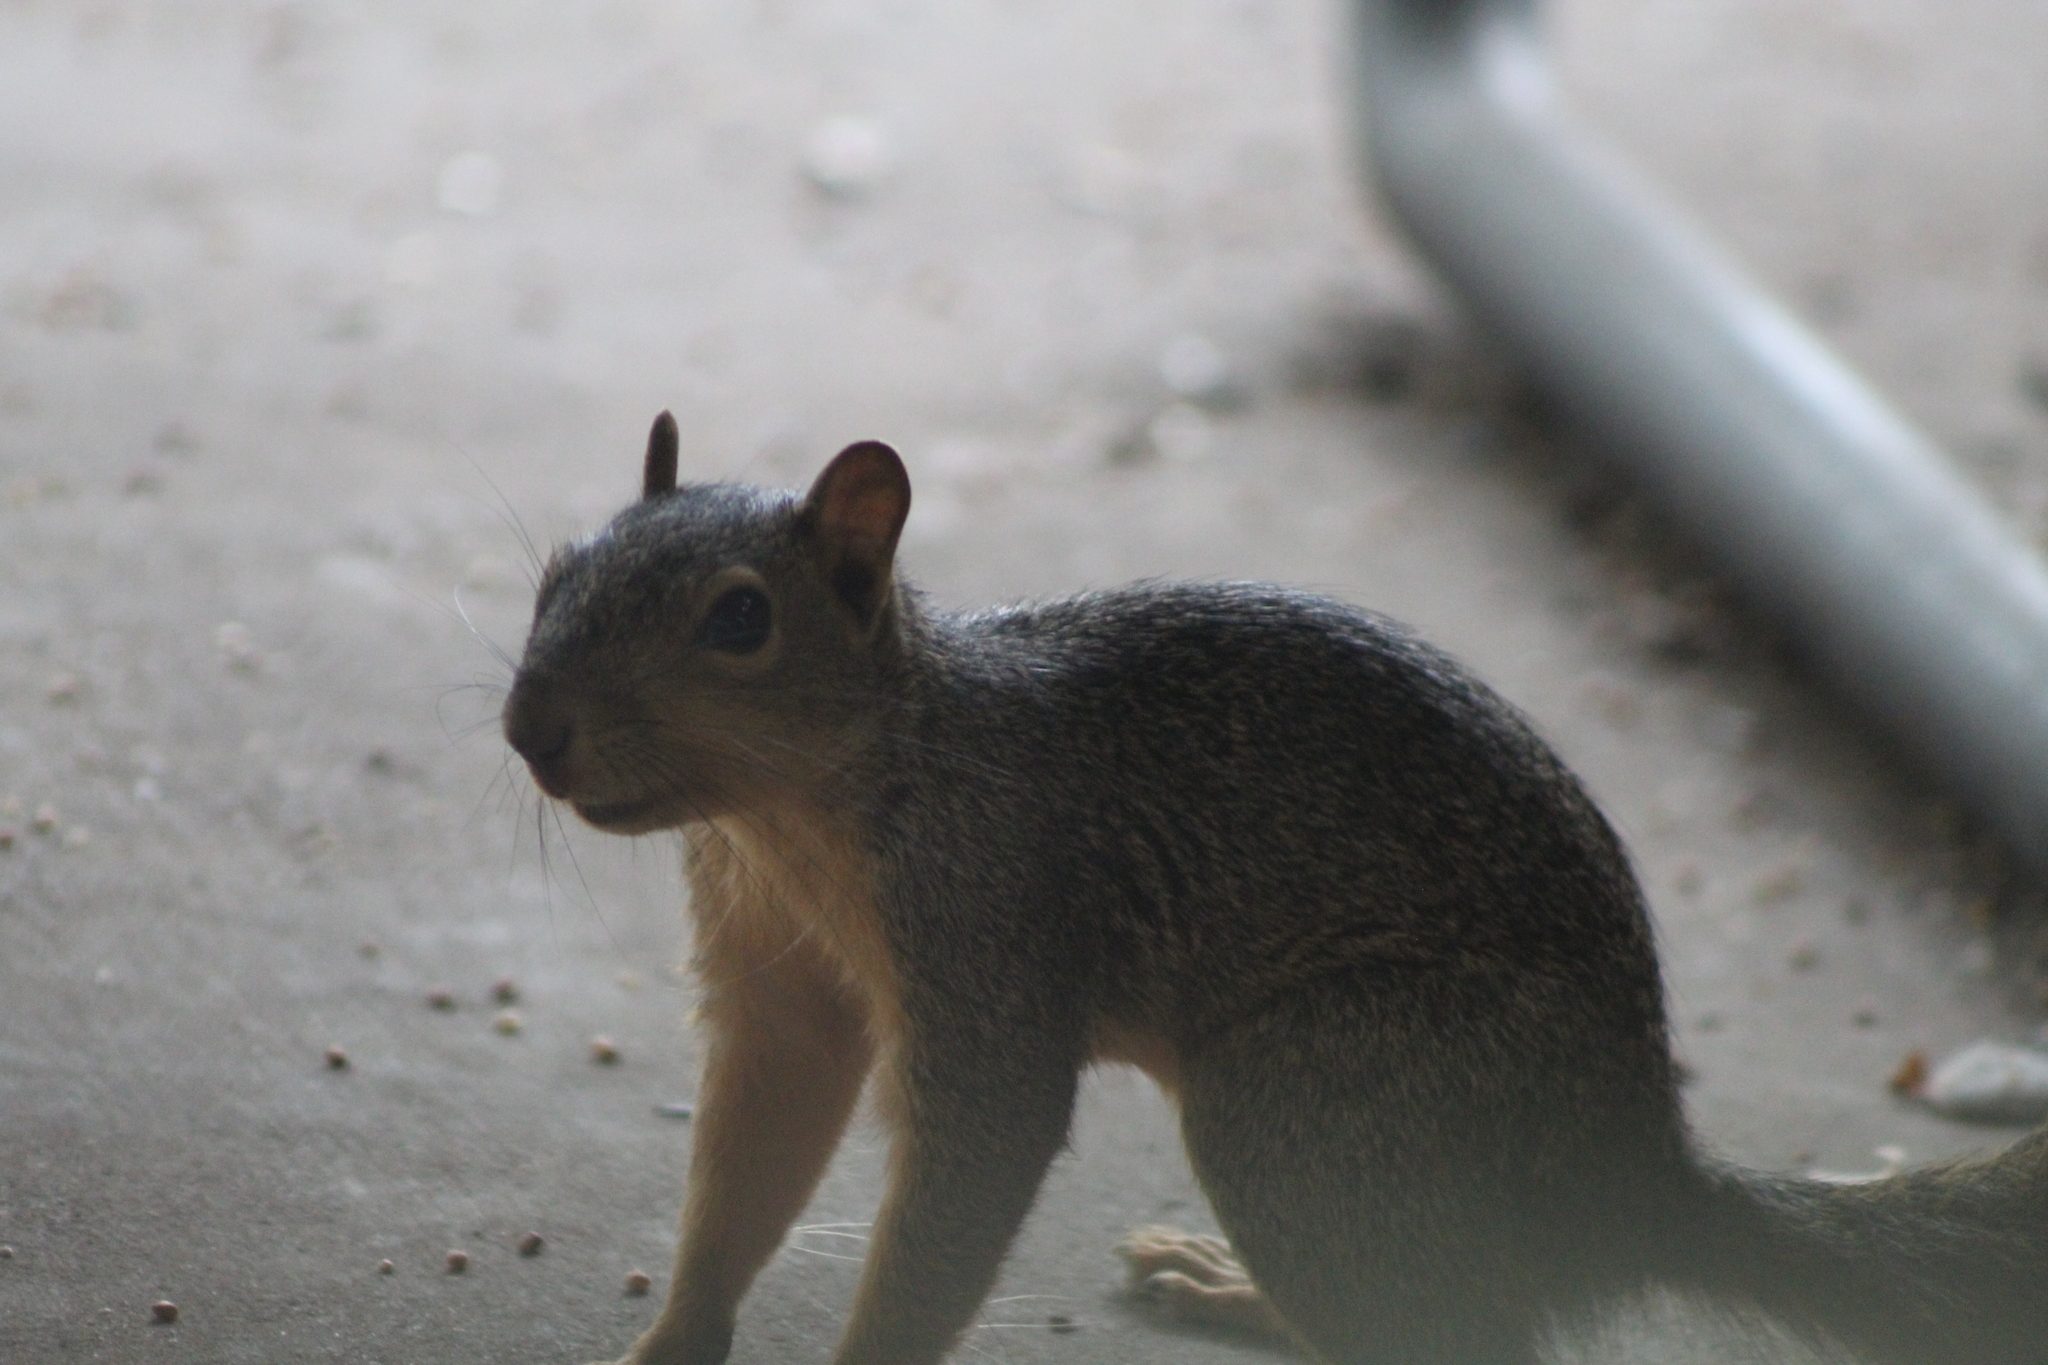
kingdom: Animalia
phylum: Chordata
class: Mammalia
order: Rodentia
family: Sciuridae
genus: Sciurus
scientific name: Sciurus niger
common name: Fox squirrel
